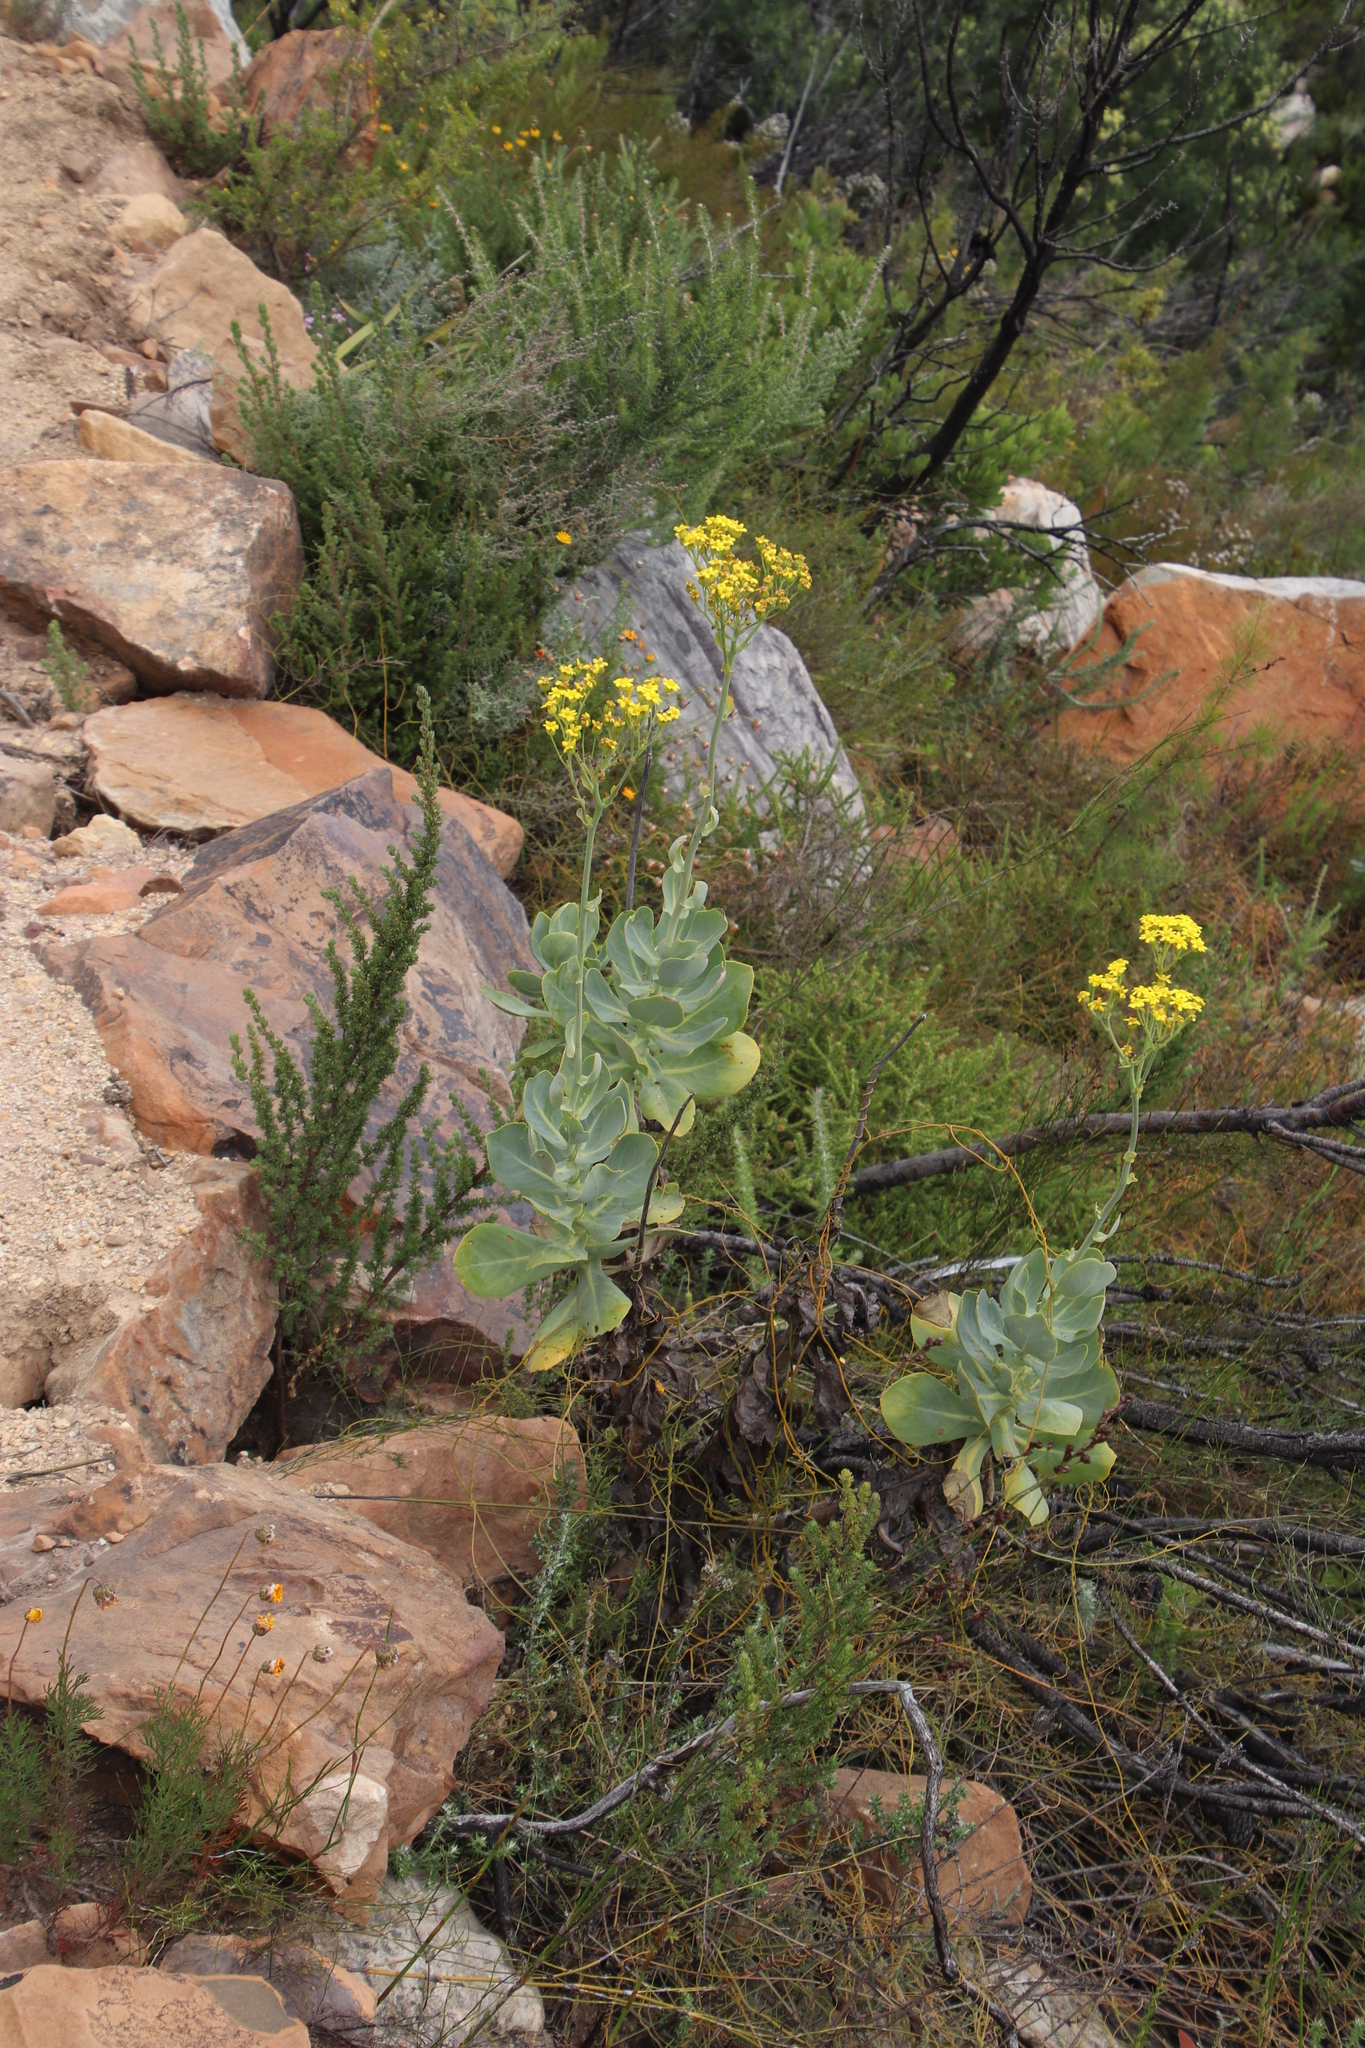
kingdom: Plantae
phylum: Tracheophyta
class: Magnoliopsida
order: Asterales
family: Asteraceae
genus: Othonna
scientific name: Othonna parviflora
